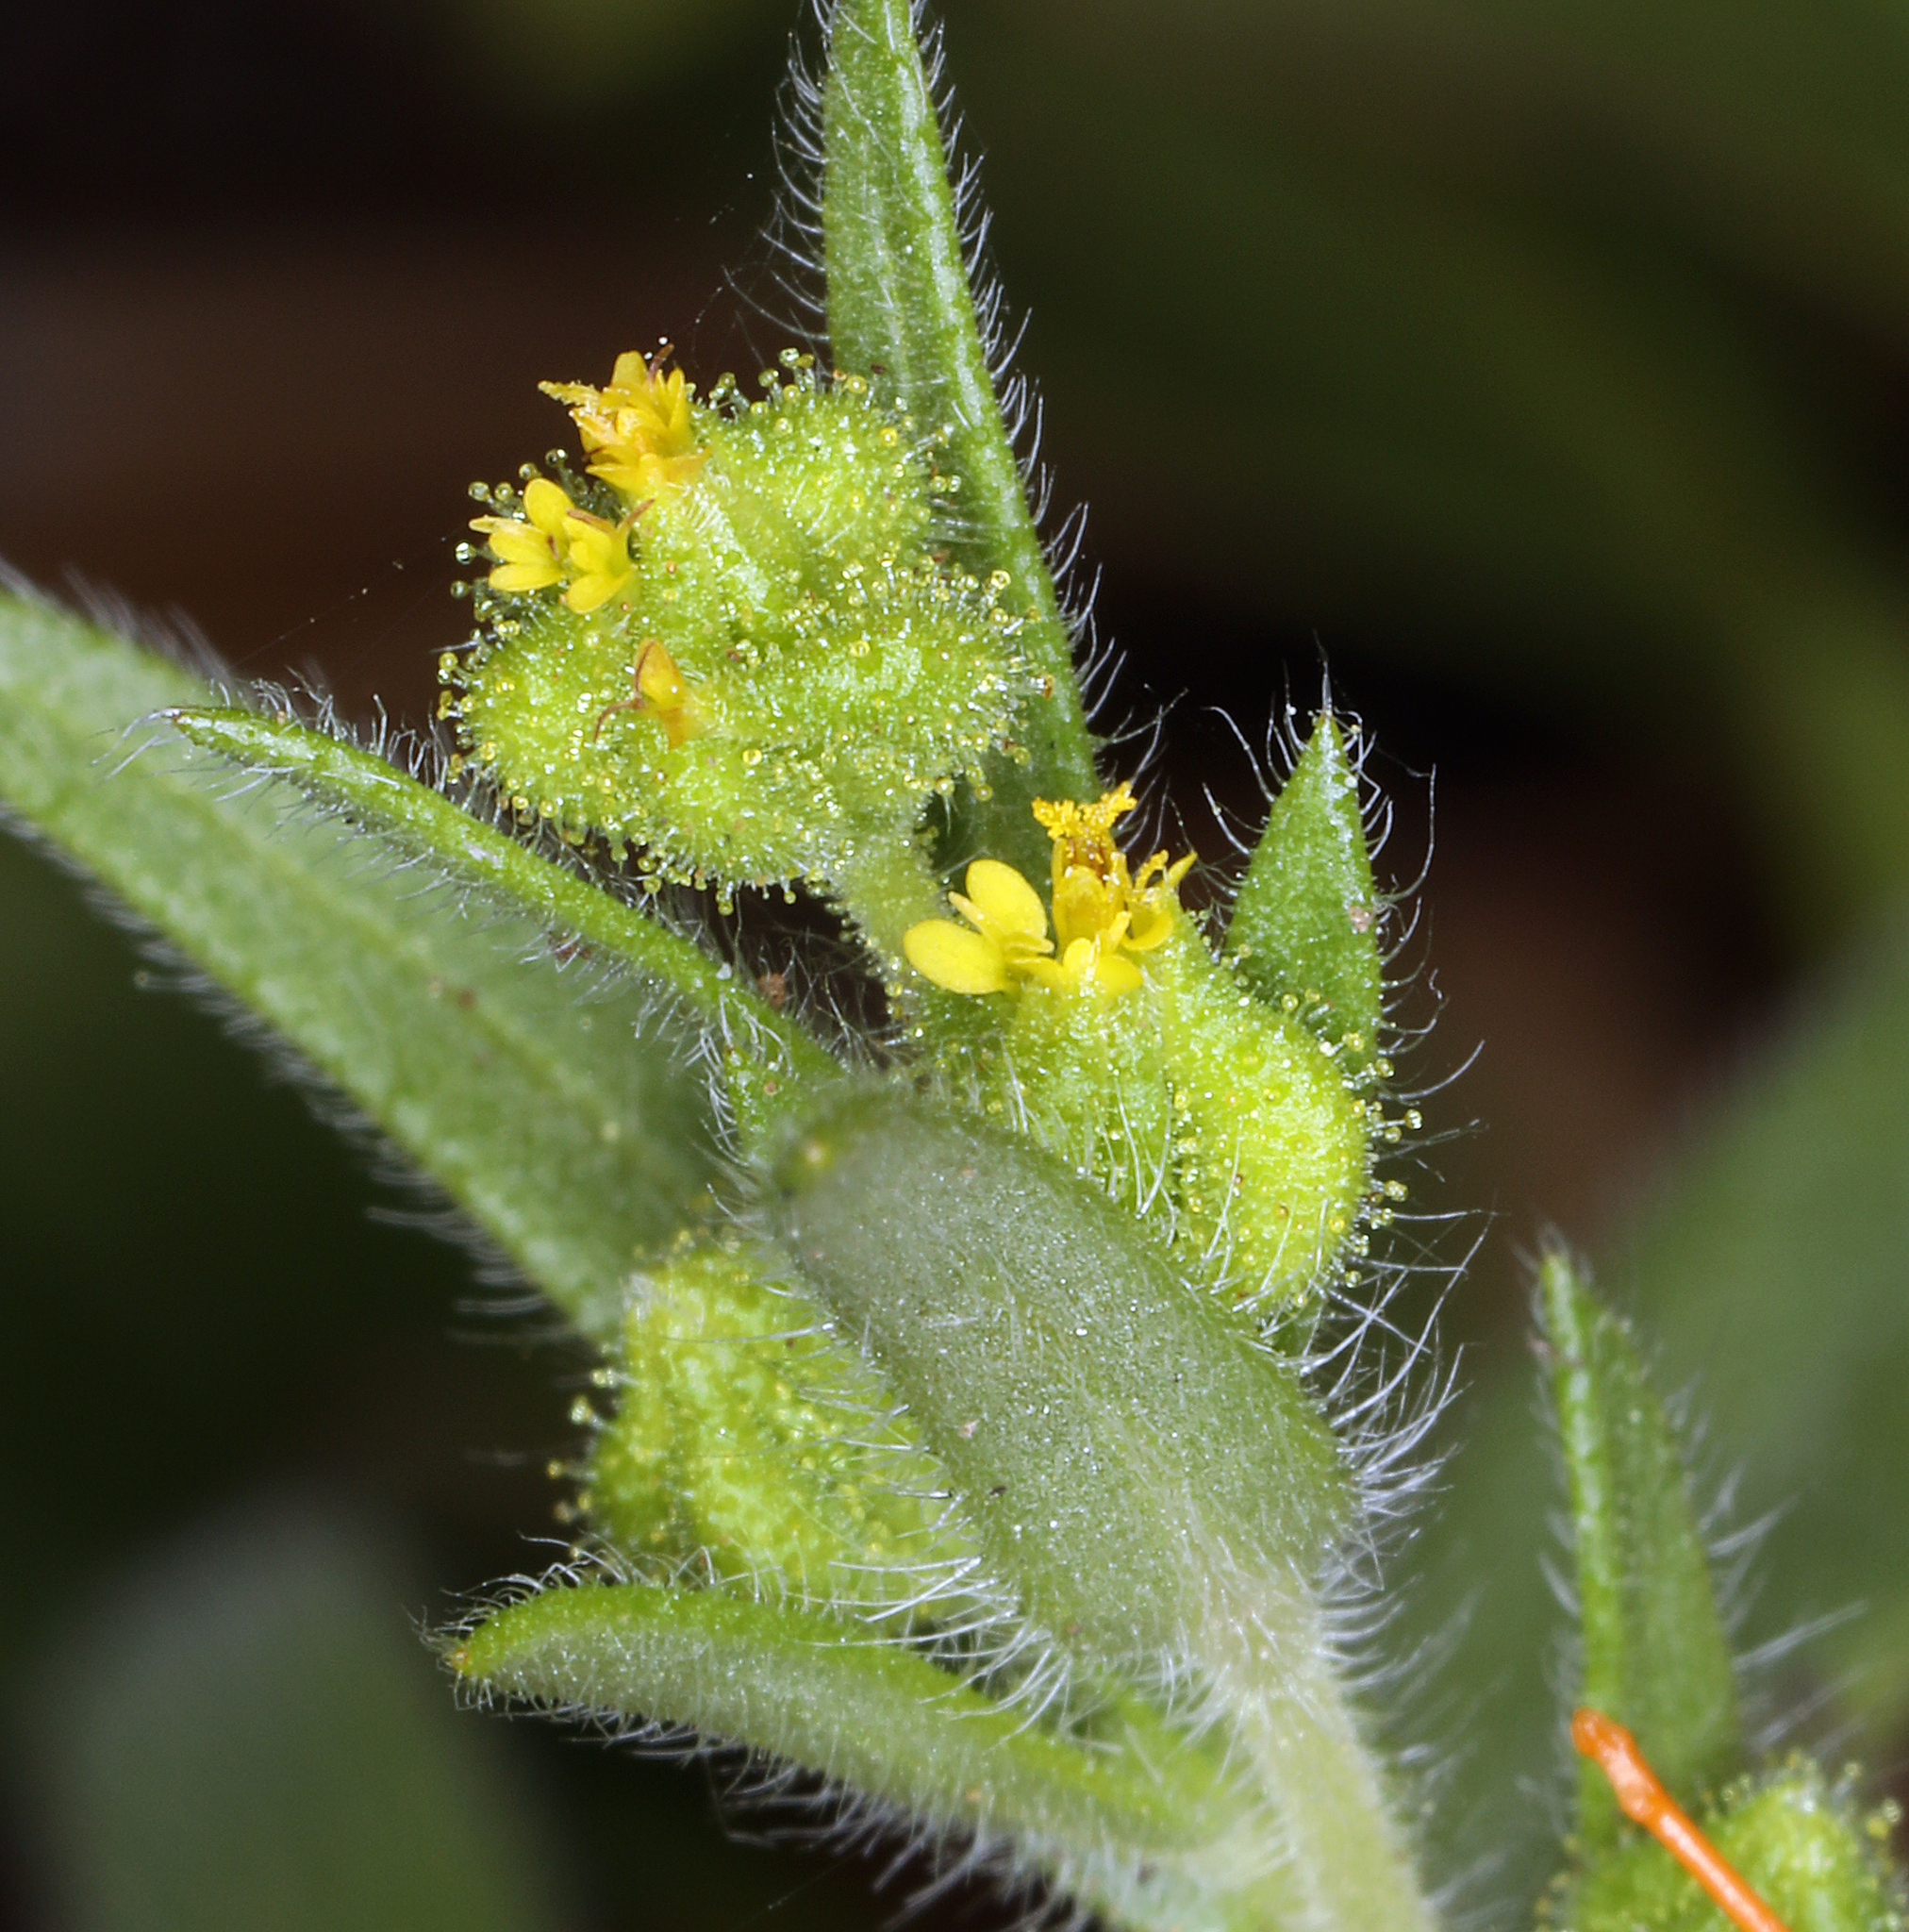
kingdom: Plantae
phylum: Tracheophyta
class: Magnoliopsida
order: Asterales
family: Asteraceae
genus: Hemizonella
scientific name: Hemizonella minima
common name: Opposite-leaved tarweed
